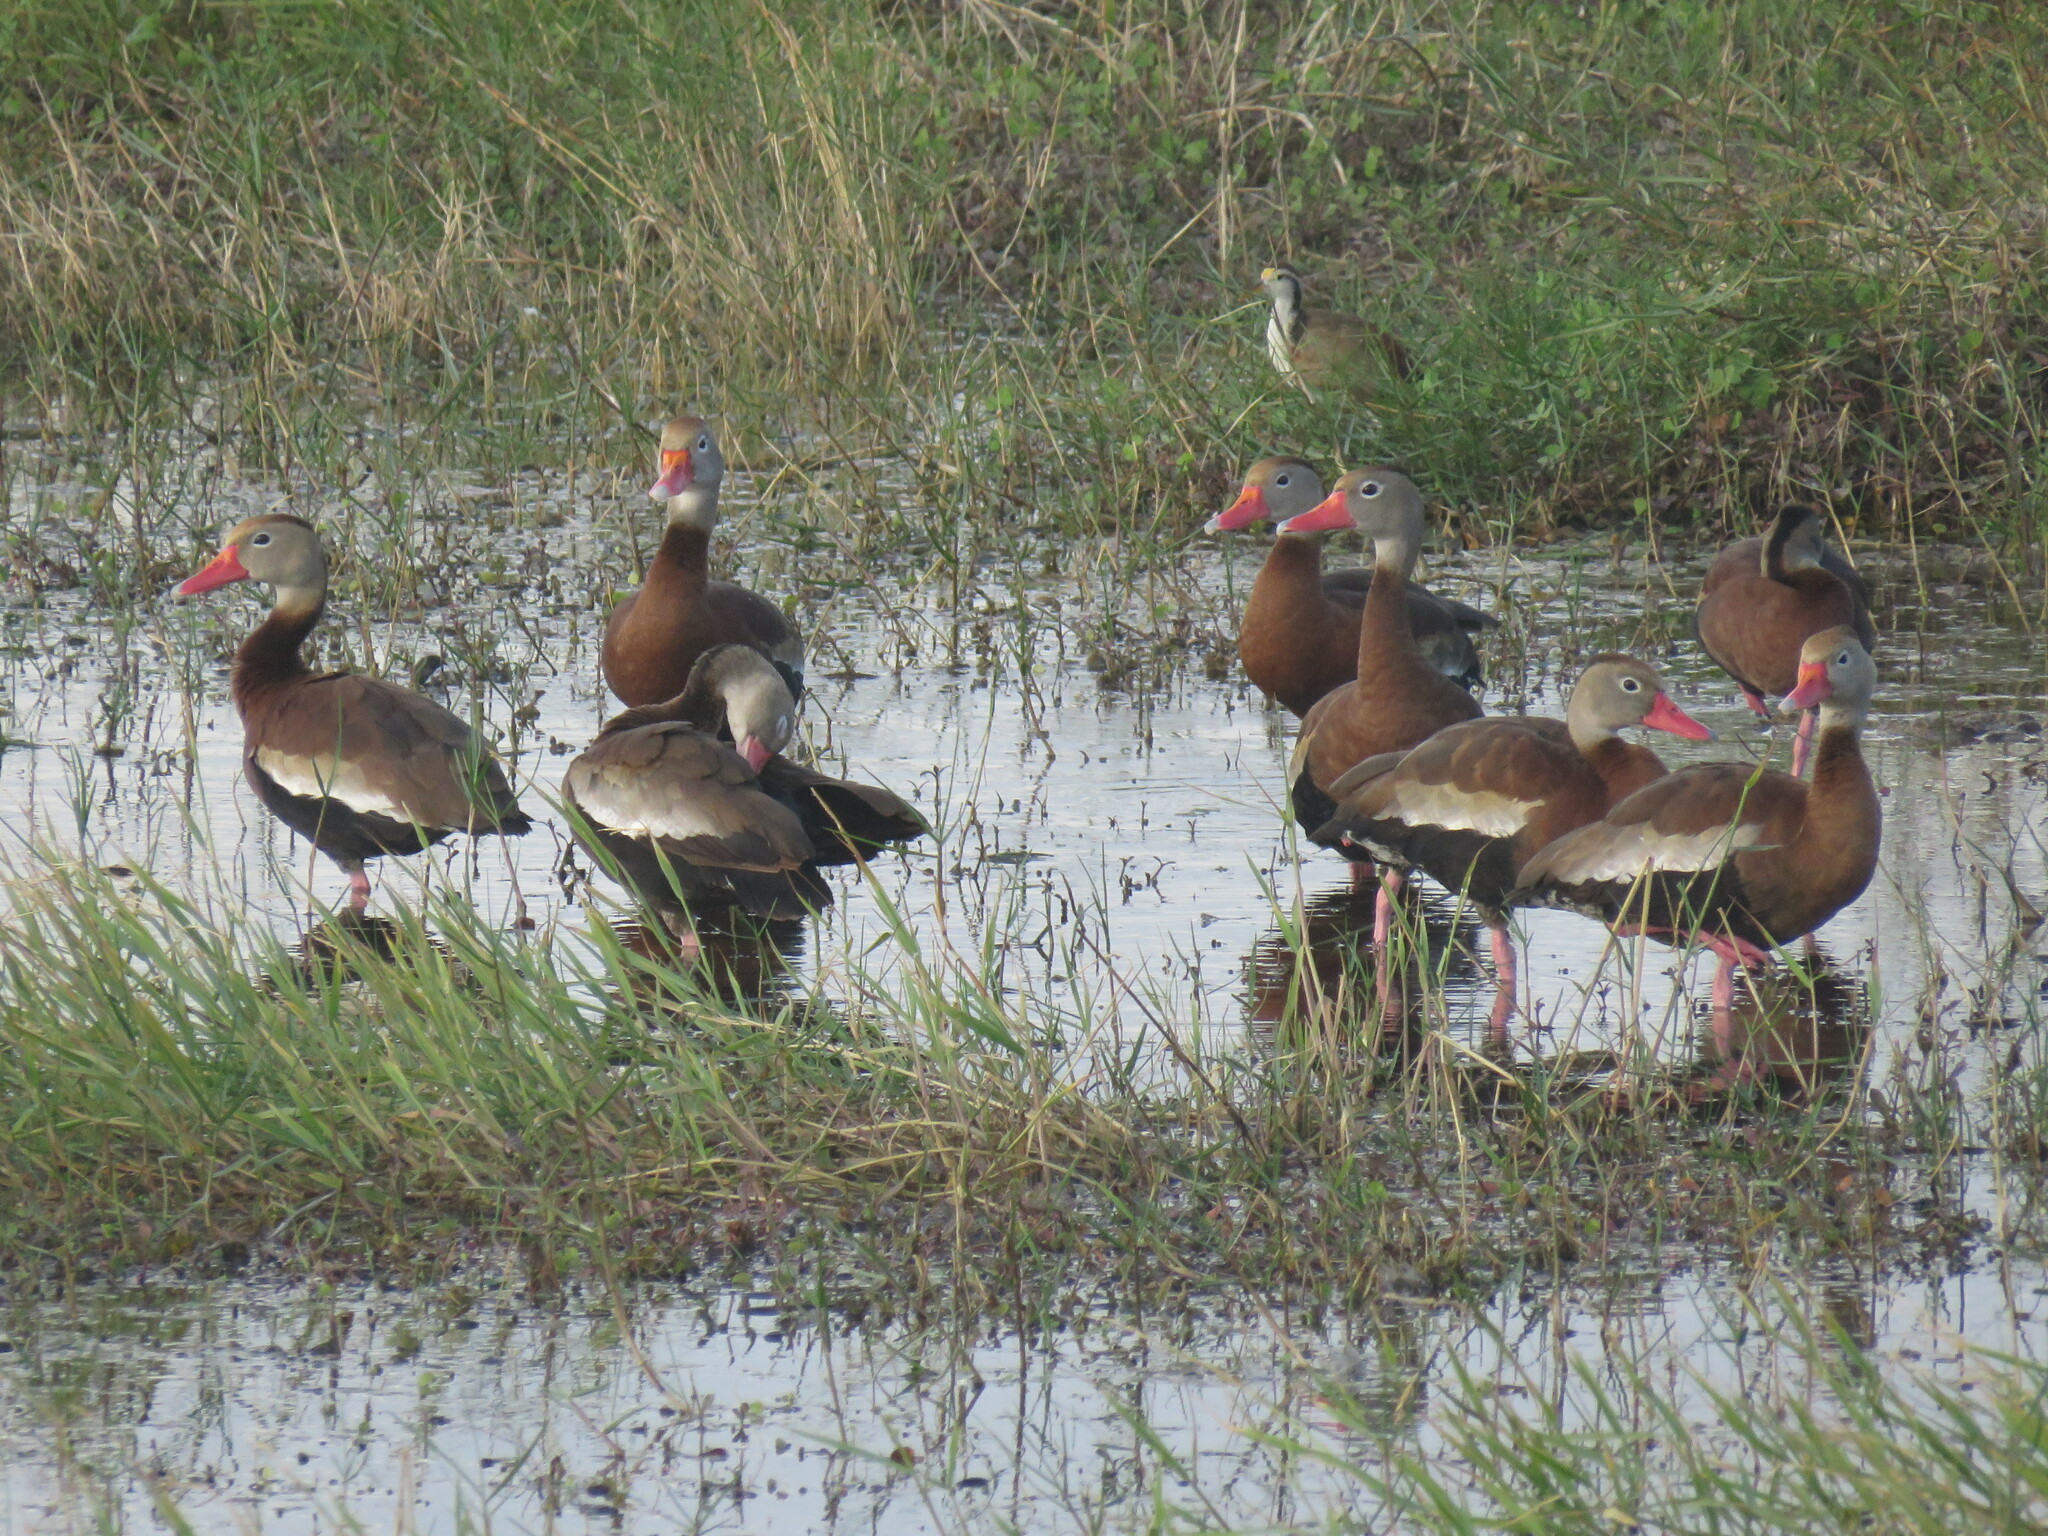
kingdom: Animalia
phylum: Chordata
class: Aves
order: Anseriformes
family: Anatidae
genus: Dendrocygna
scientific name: Dendrocygna autumnalis
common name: Black-bellied whistling duck
